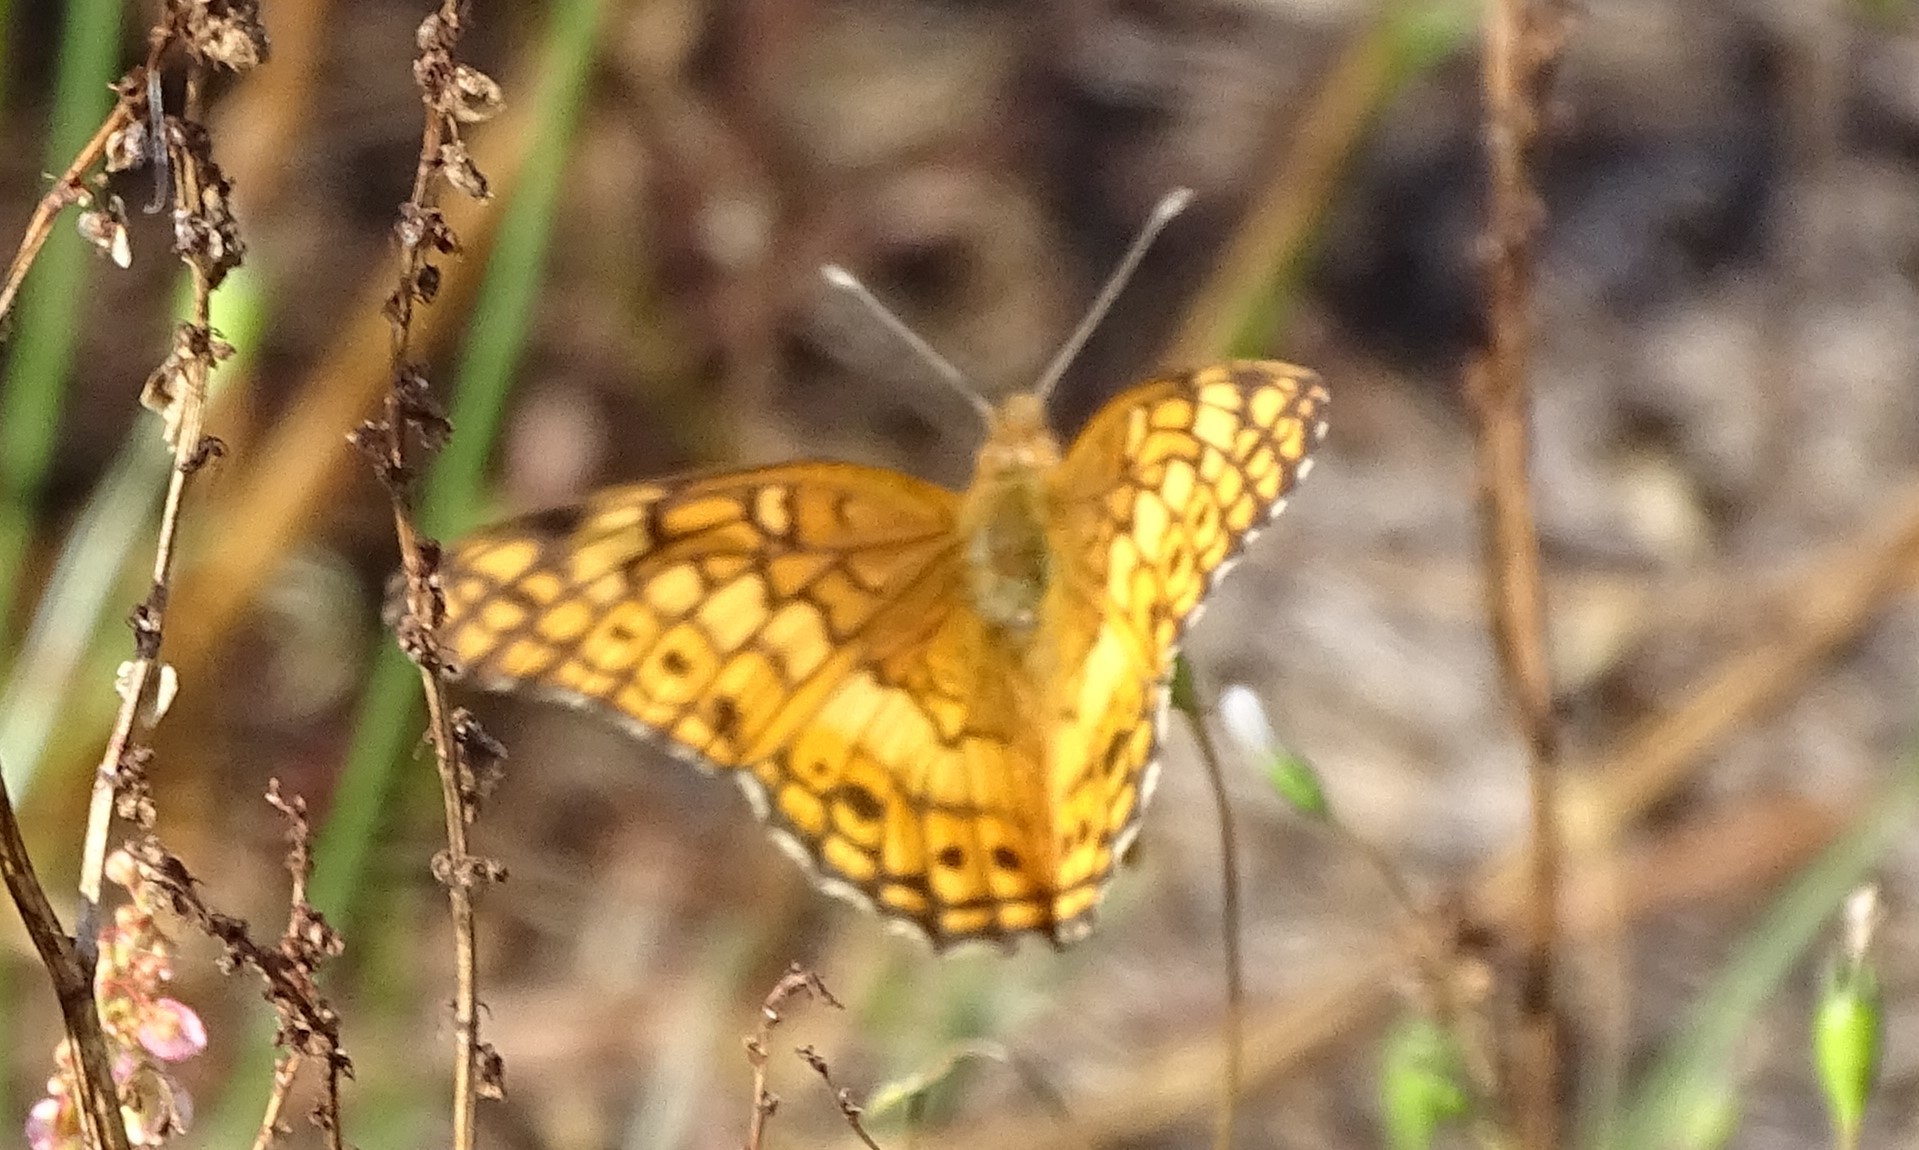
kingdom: Animalia
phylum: Arthropoda
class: Insecta
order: Lepidoptera
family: Nymphalidae
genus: Euptoieta
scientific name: Euptoieta claudia
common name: Variegated fritillary
